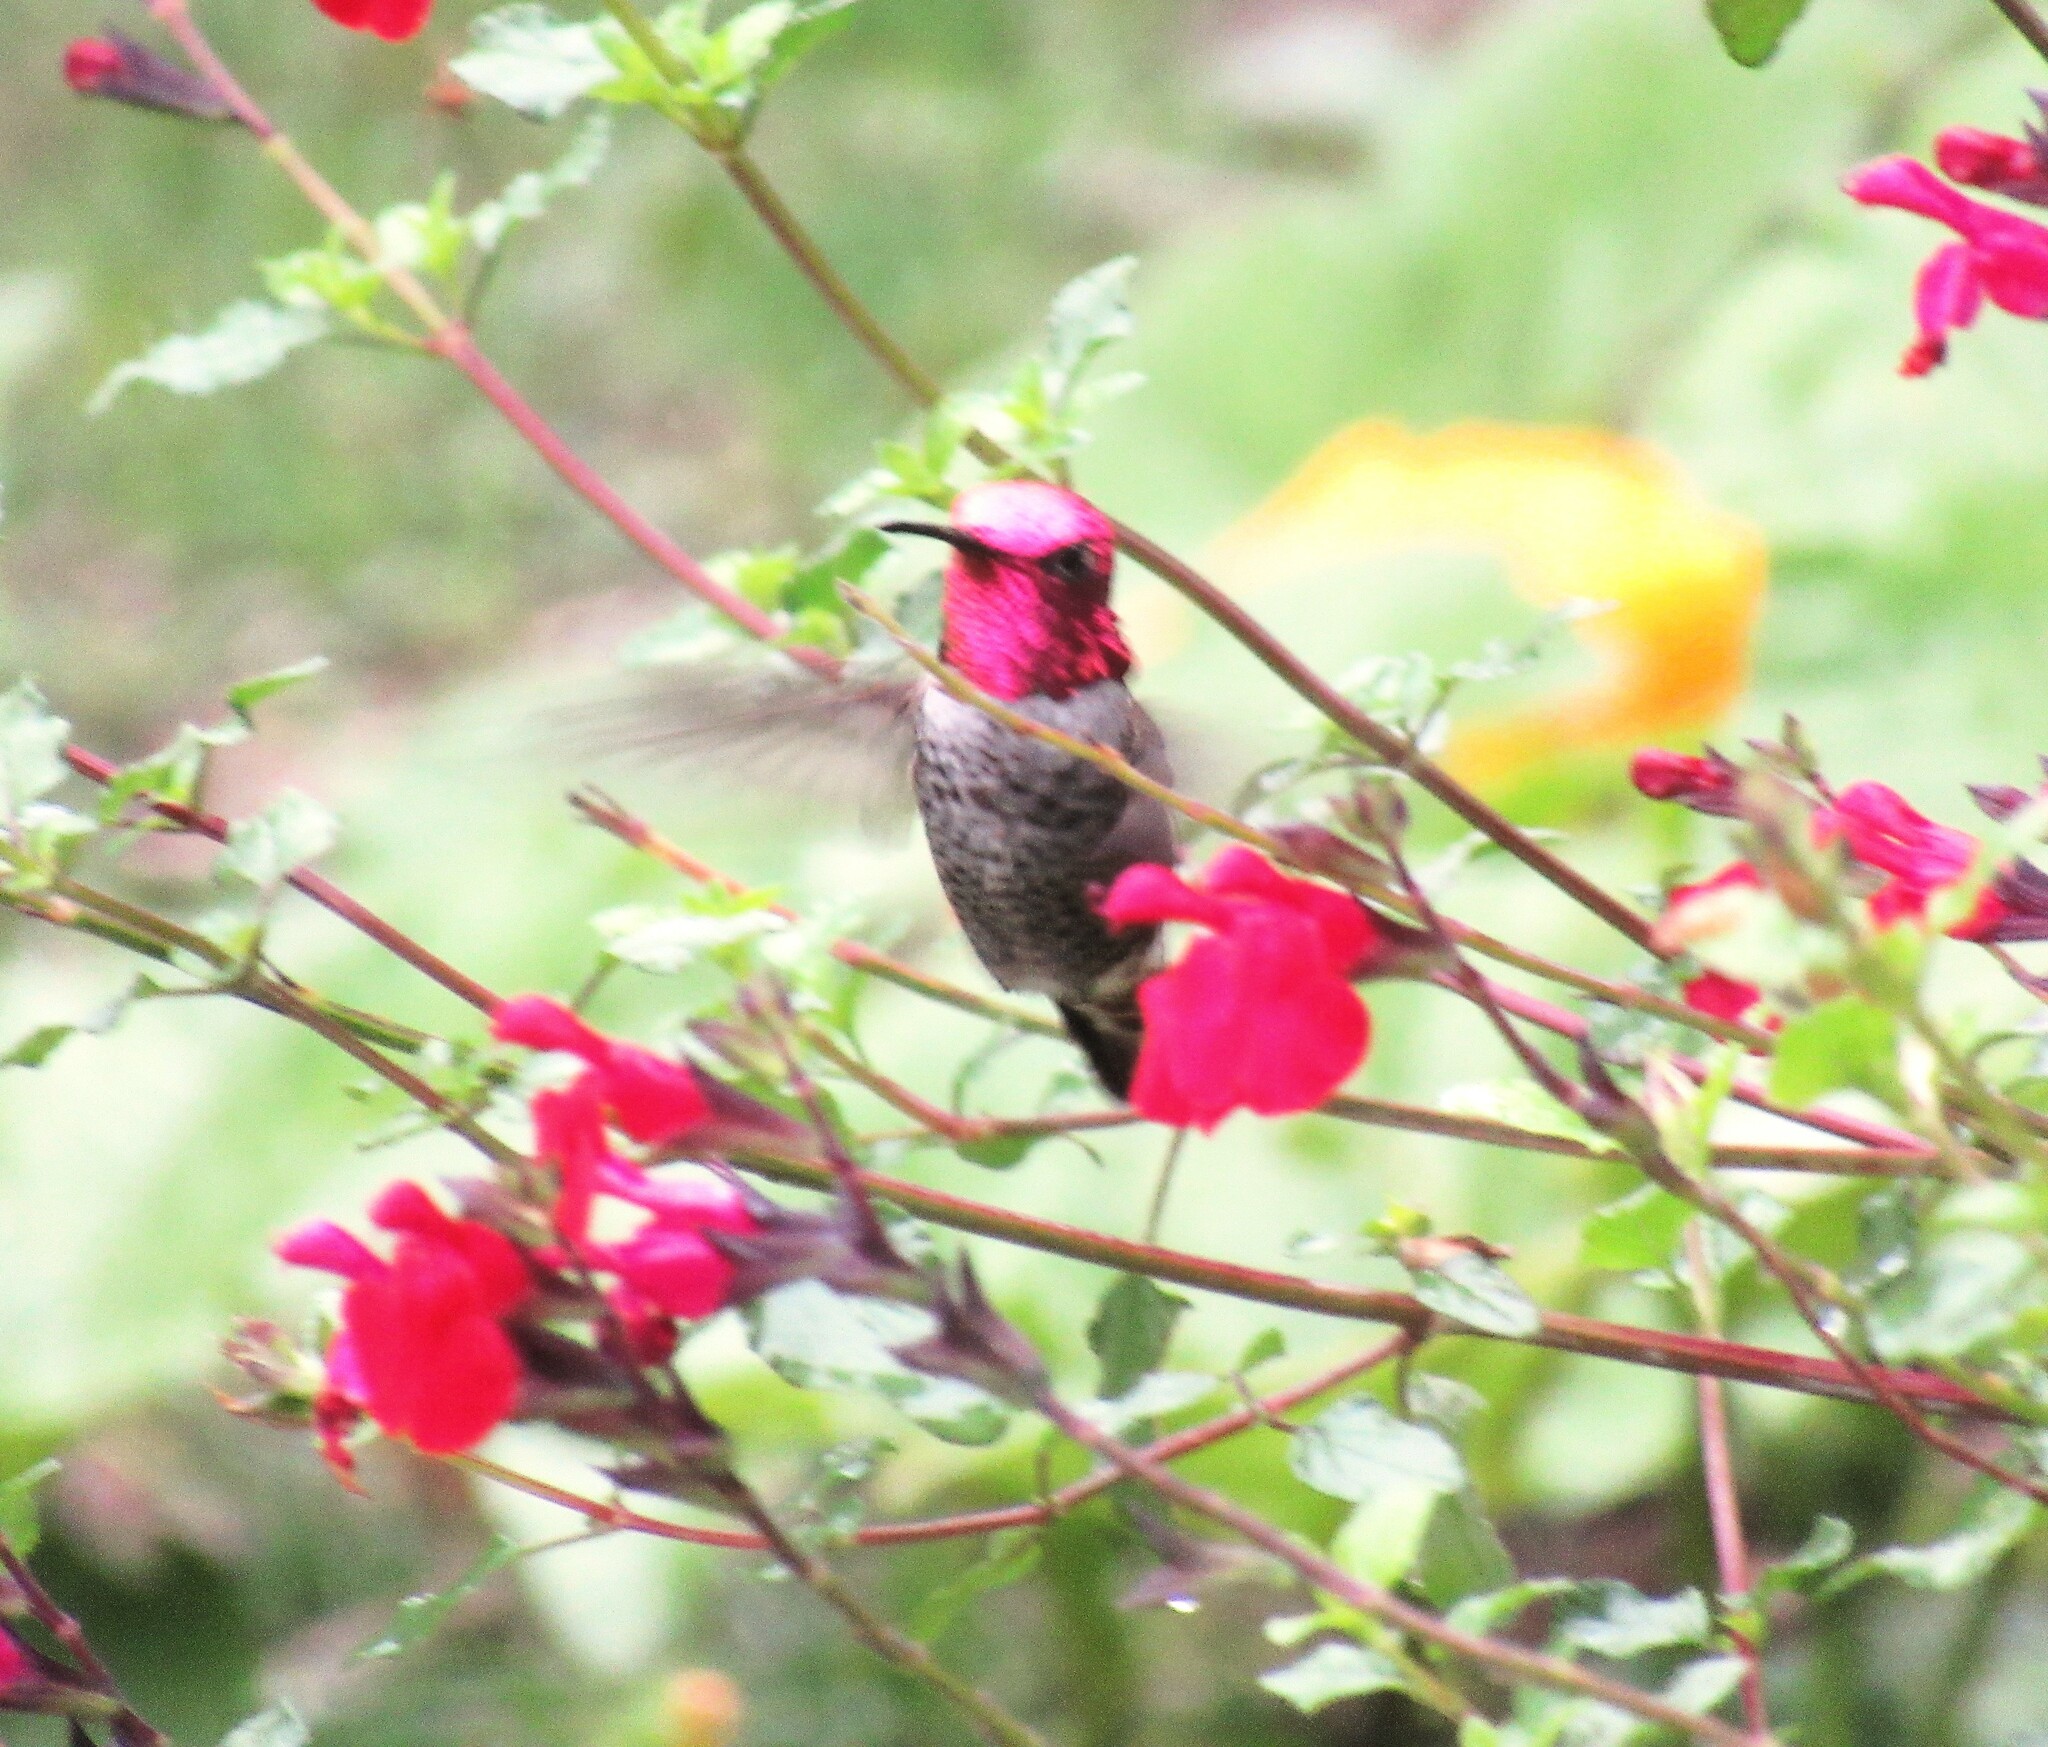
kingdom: Animalia
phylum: Chordata
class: Aves
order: Apodiformes
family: Trochilidae
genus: Calypte
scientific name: Calypte anna
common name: Anna's hummingbird
